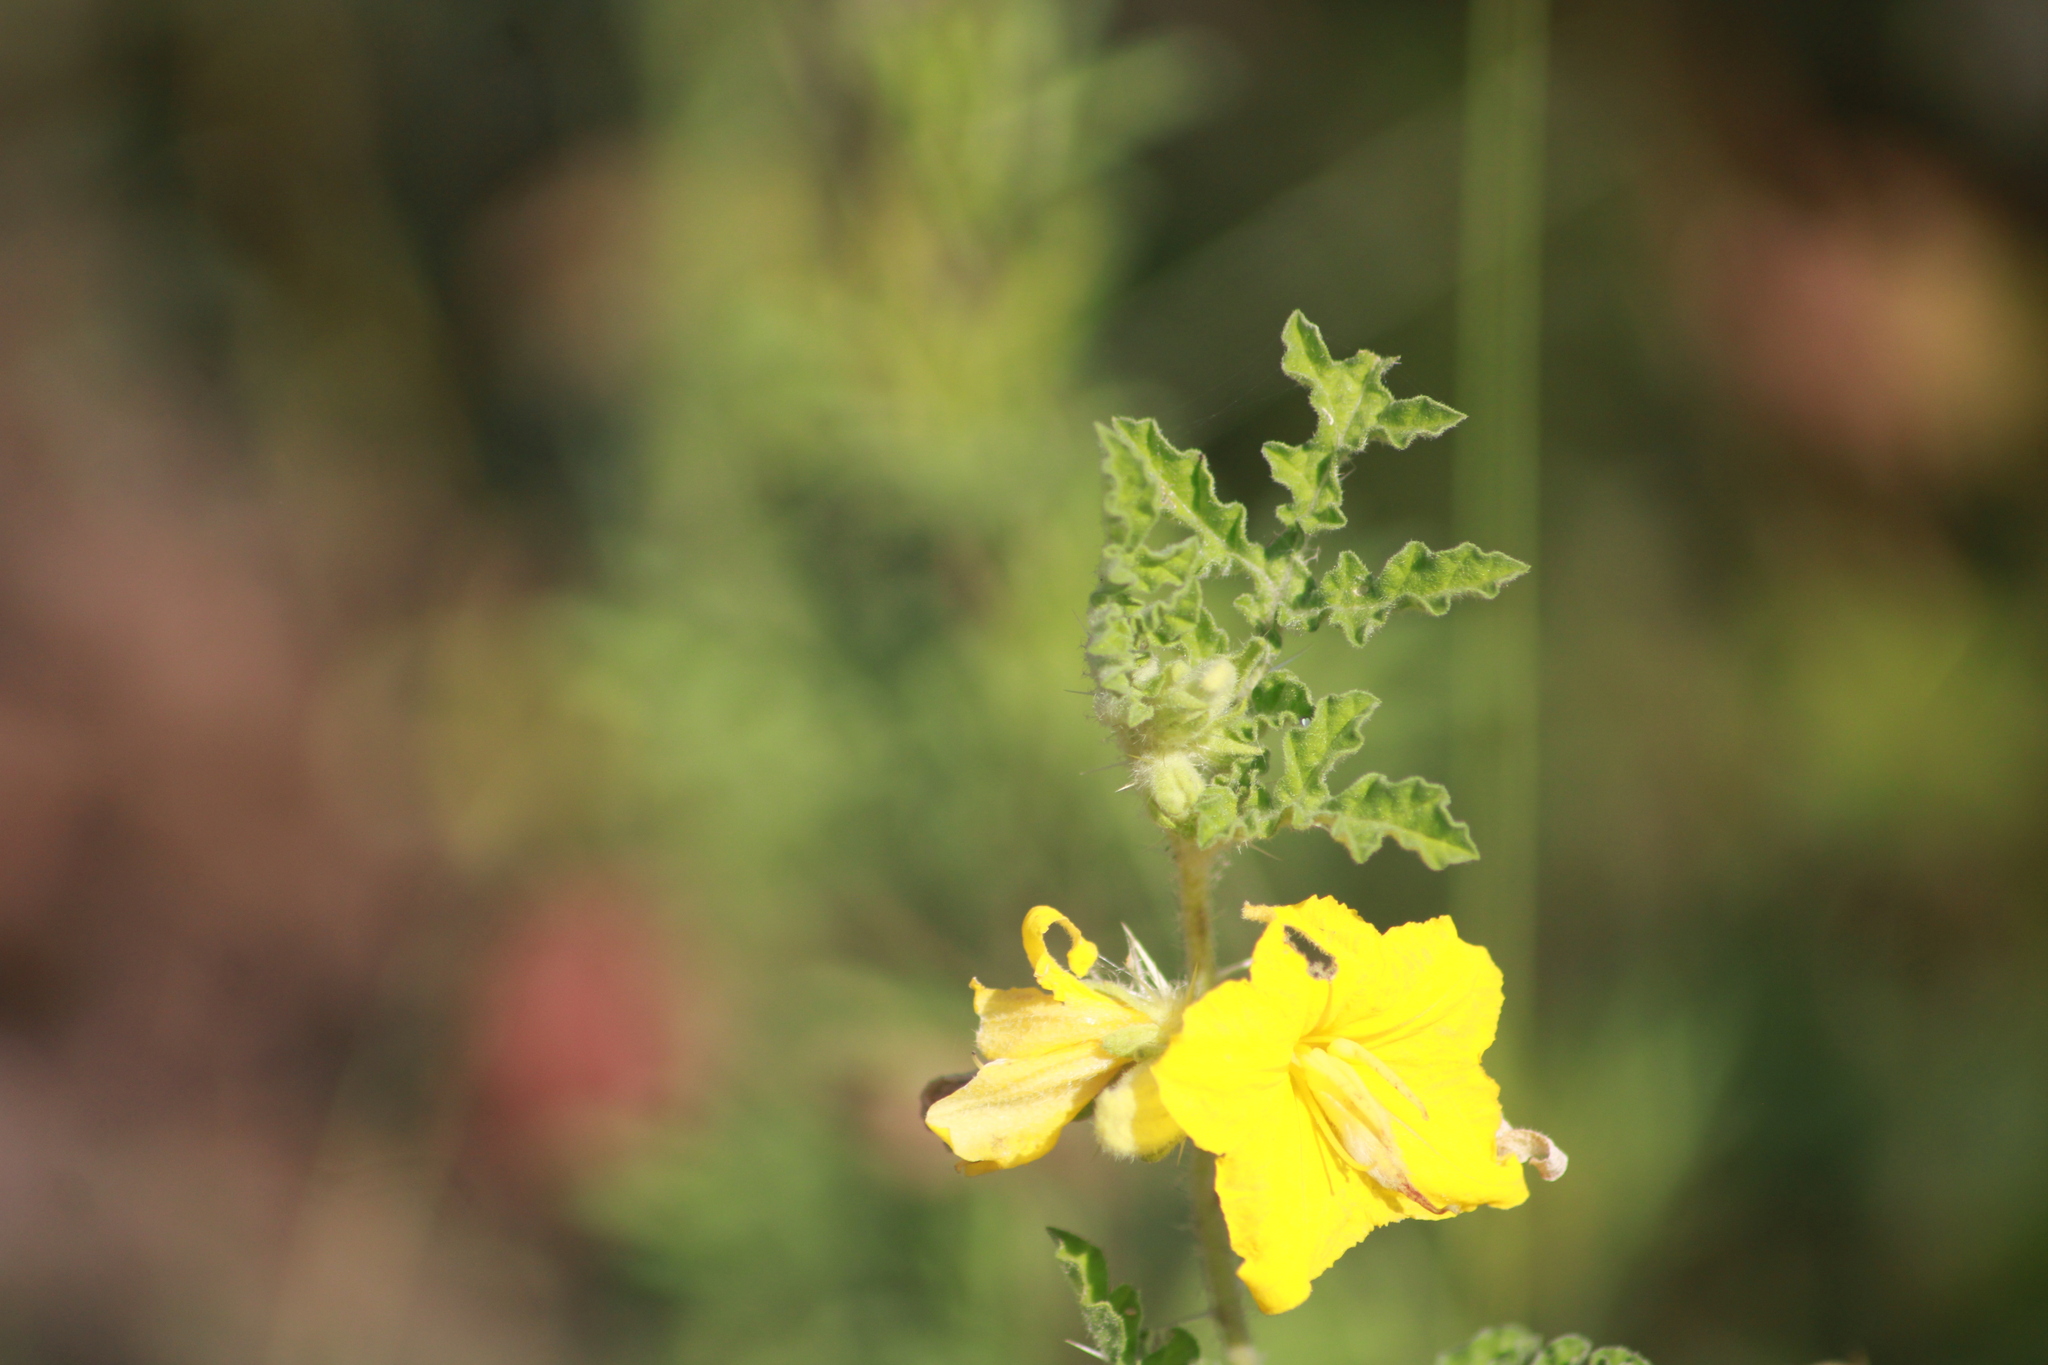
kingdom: Plantae
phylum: Tracheophyta
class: Magnoliopsida
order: Solanales
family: Solanaceae
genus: Solanum
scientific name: Solanum angustifolium
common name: Buffalobur nightshade
